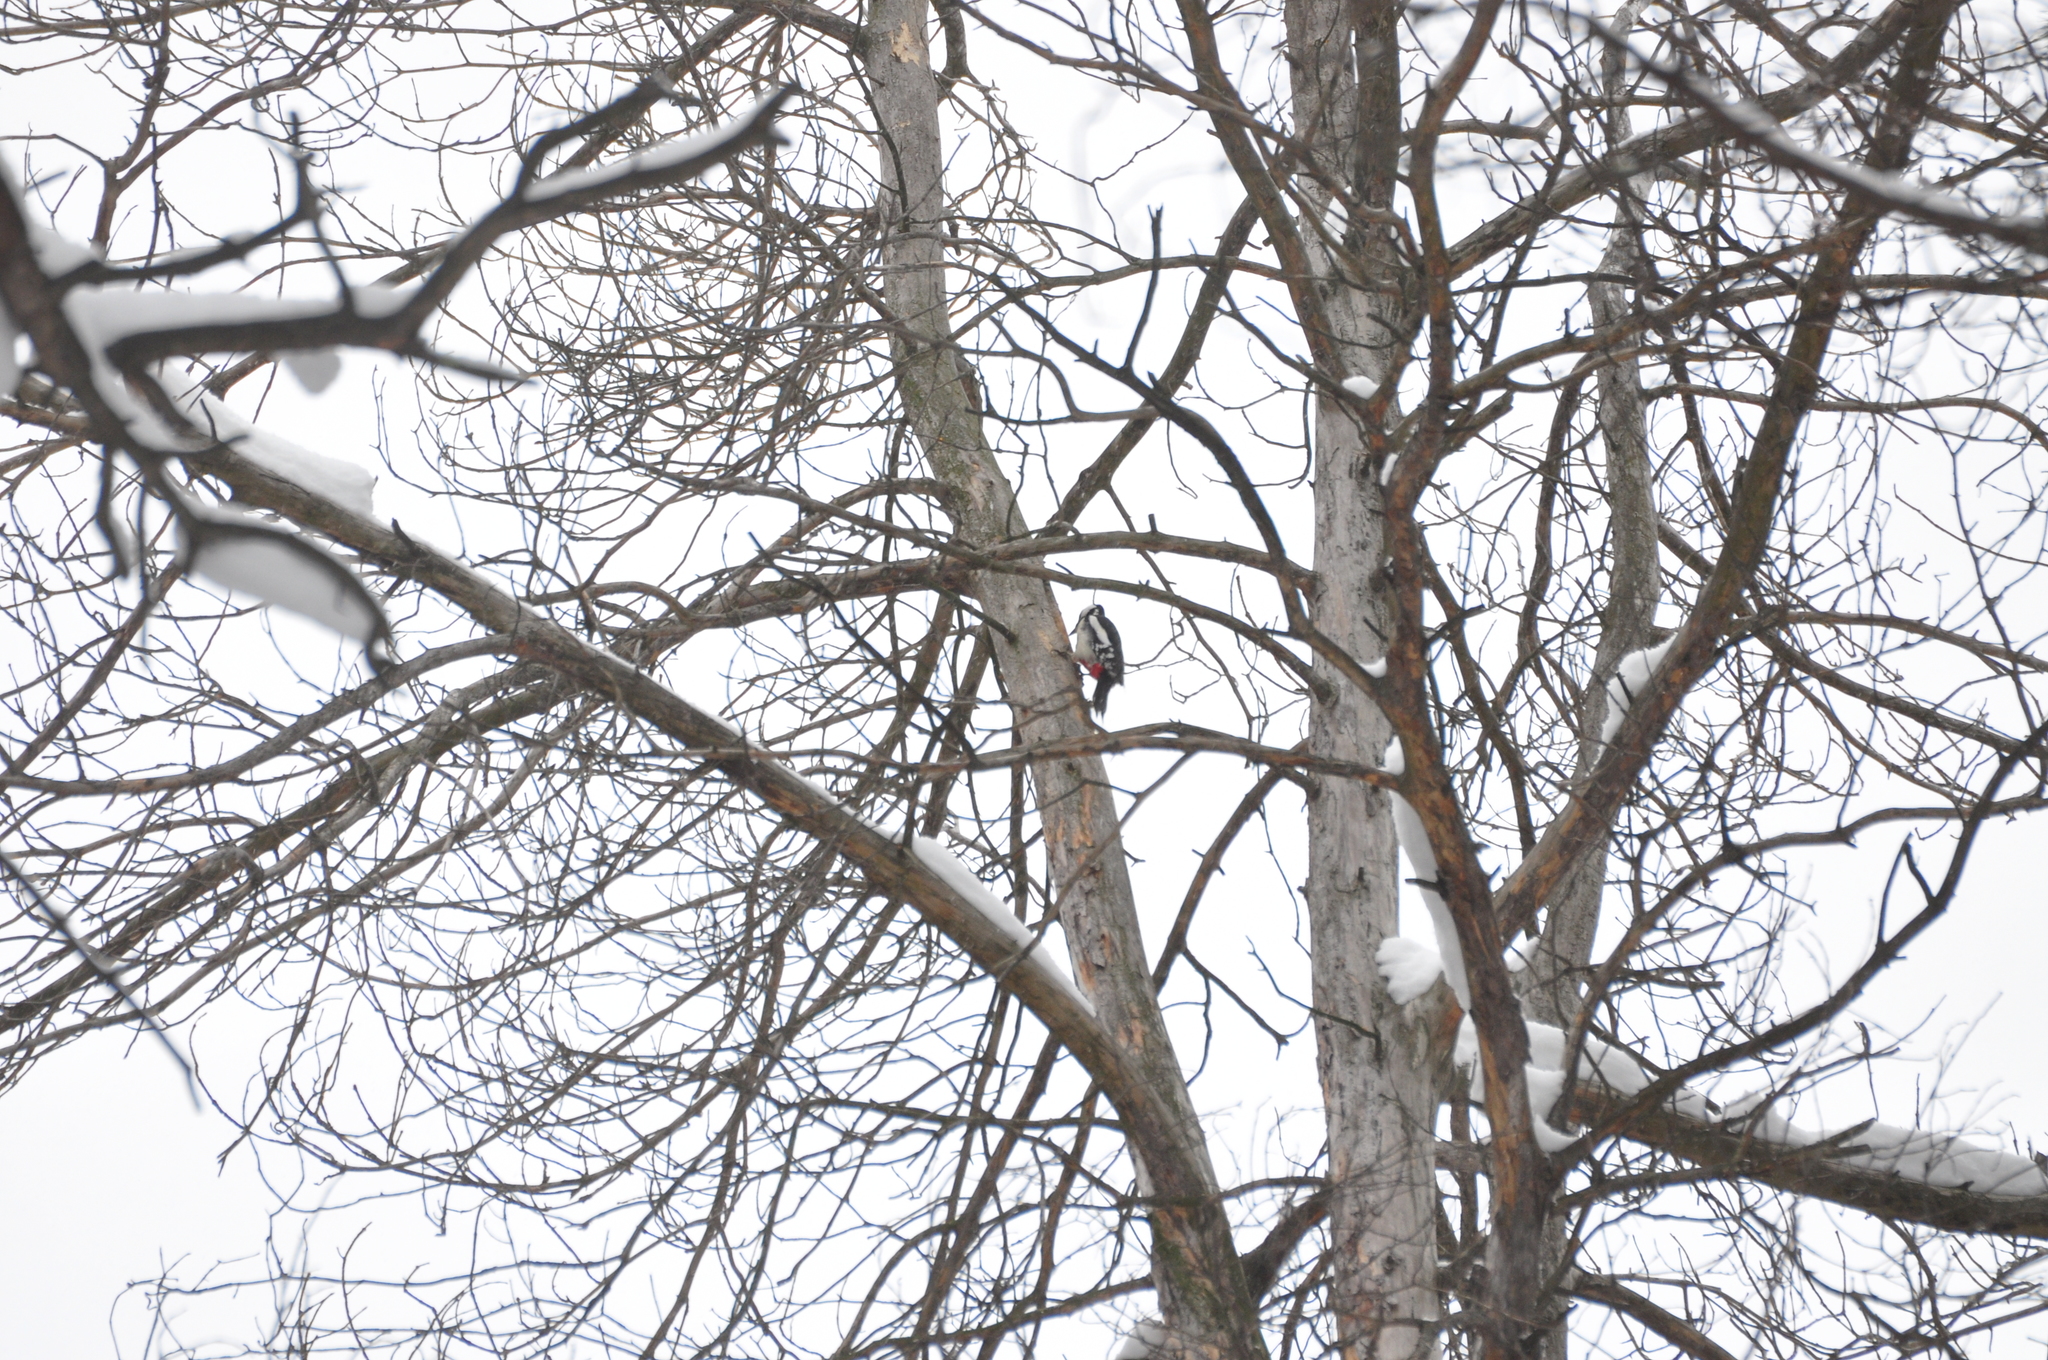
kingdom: Animalia
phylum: Chordata
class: Aves
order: Piciformes
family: Picidae
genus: Dendrocopos
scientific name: Dendrocopos major
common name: Great spotted woodpecker
